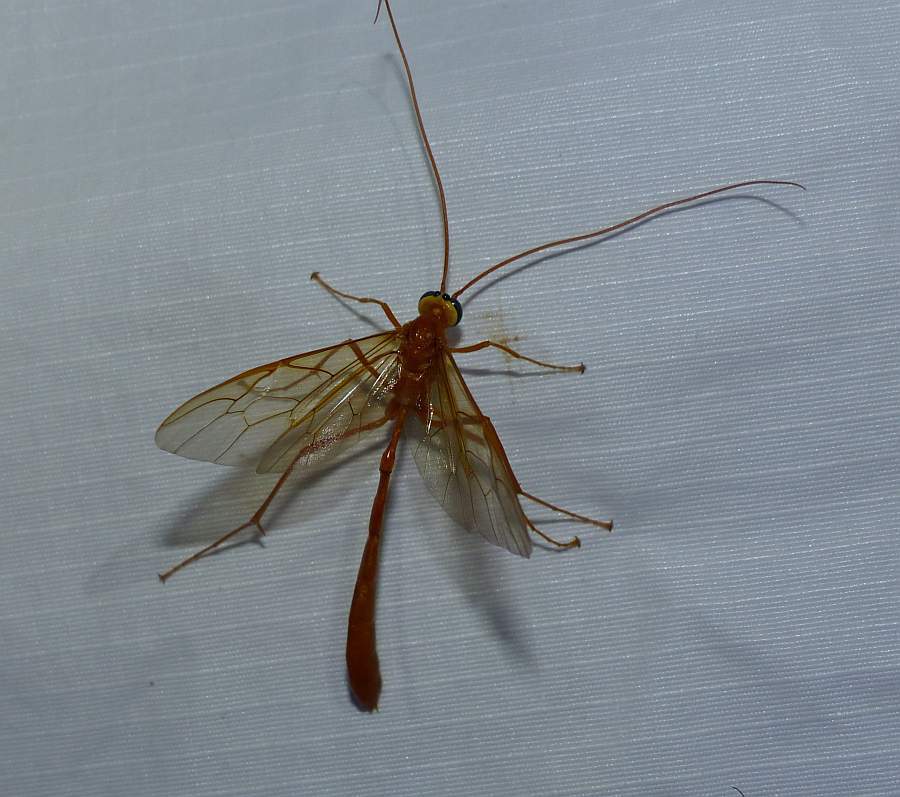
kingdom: Animalia
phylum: Arthropoda
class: Insecta
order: Hymenoptera
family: Ichneumonidae
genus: Enicospilus
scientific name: Enicospilus
